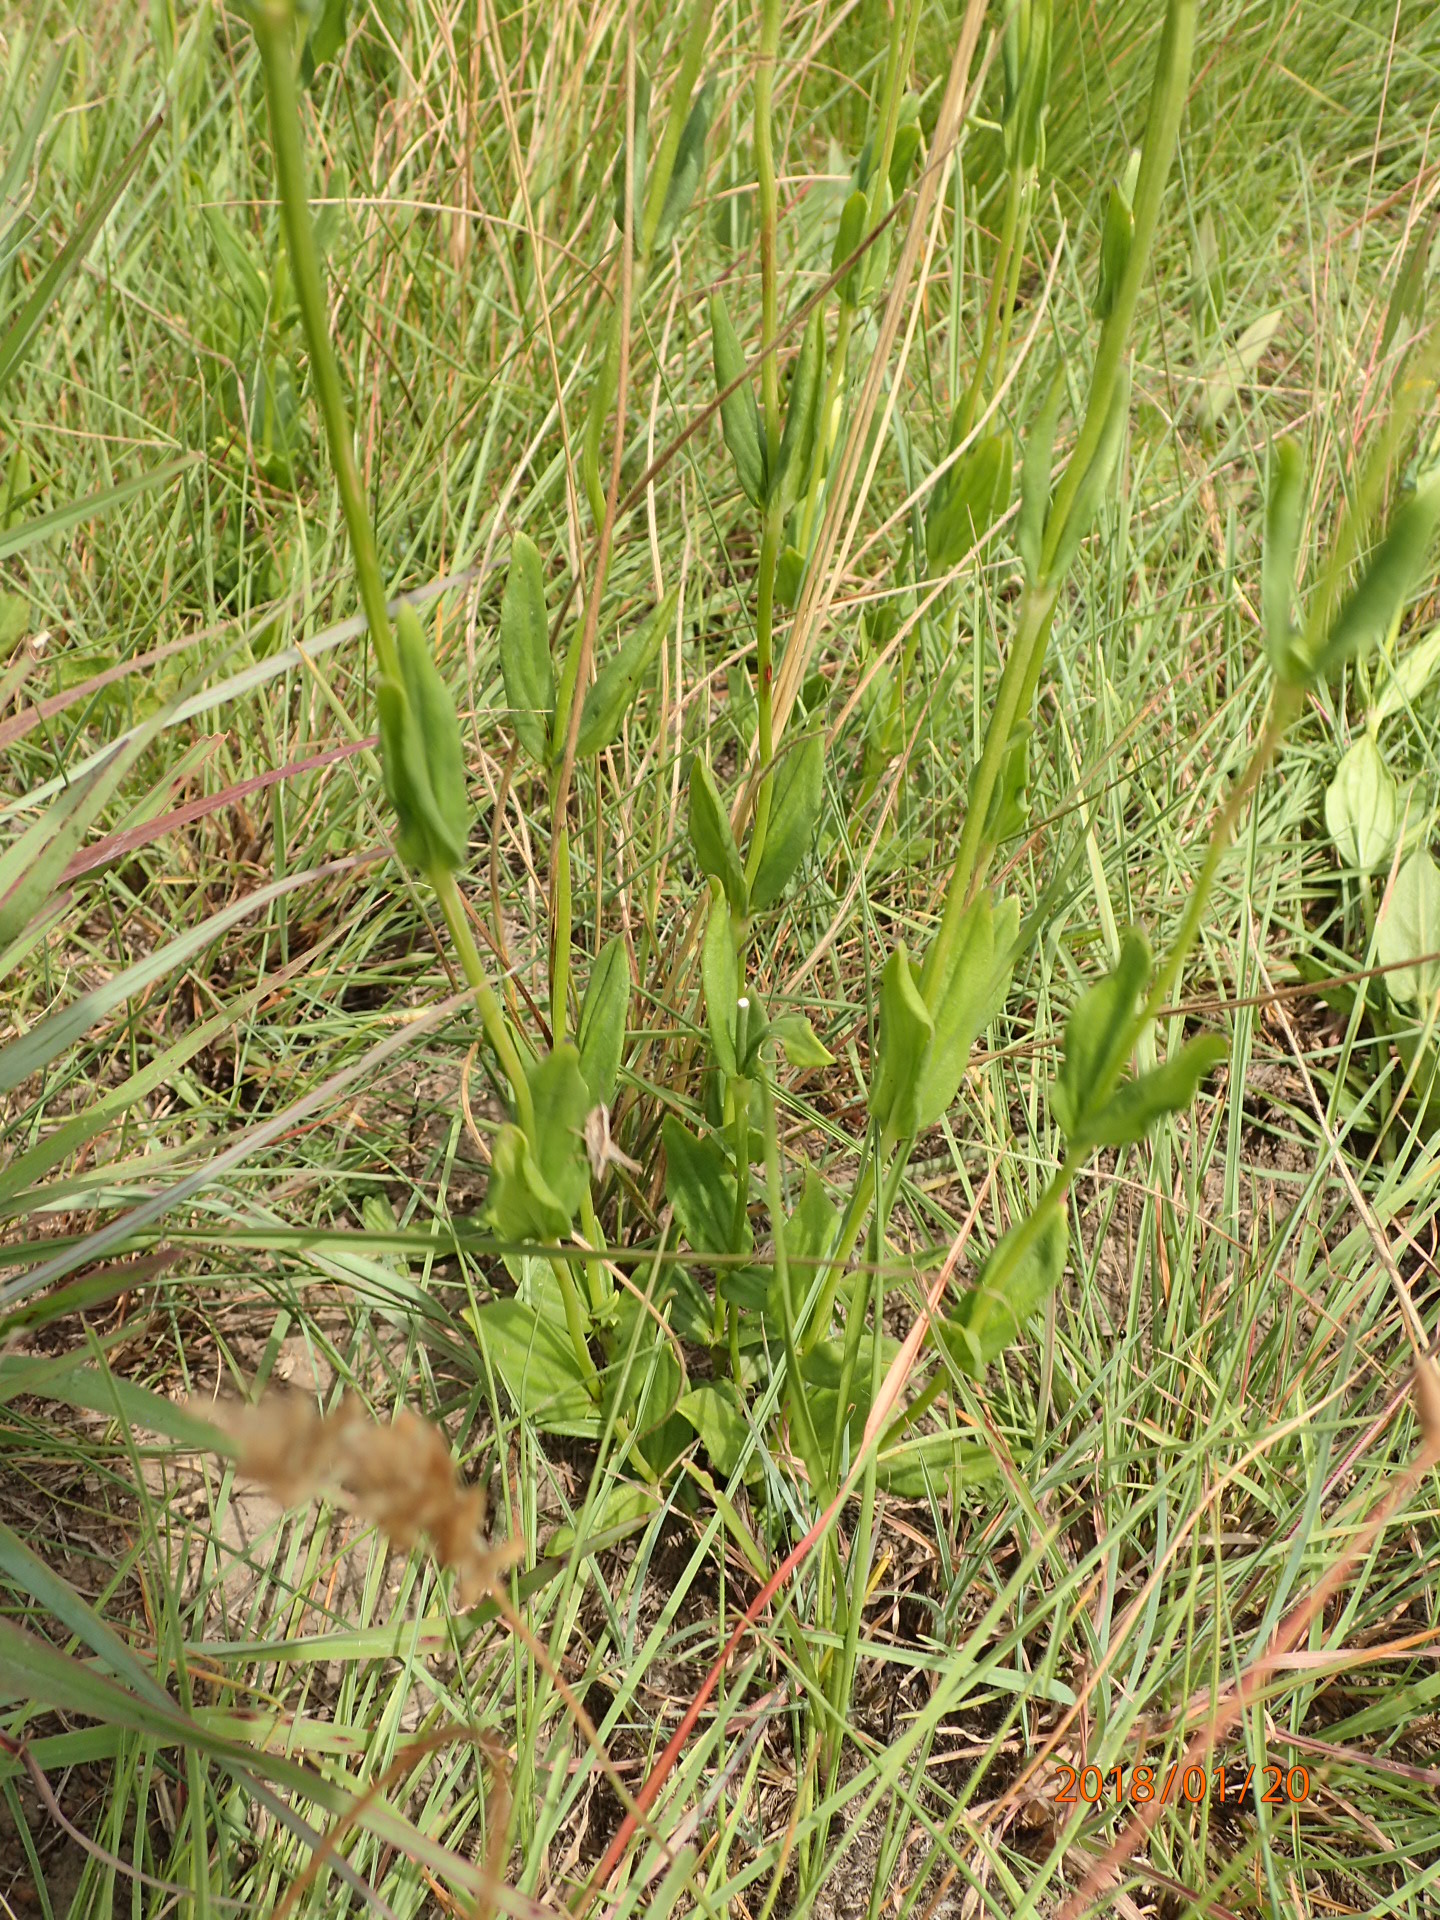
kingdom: Plantae
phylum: Tracheophyta
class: Magnoliopsida
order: Gentianales
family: Rubiaceae
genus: Agathisanthemum
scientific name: Agathisanthemum chlorophyllum
